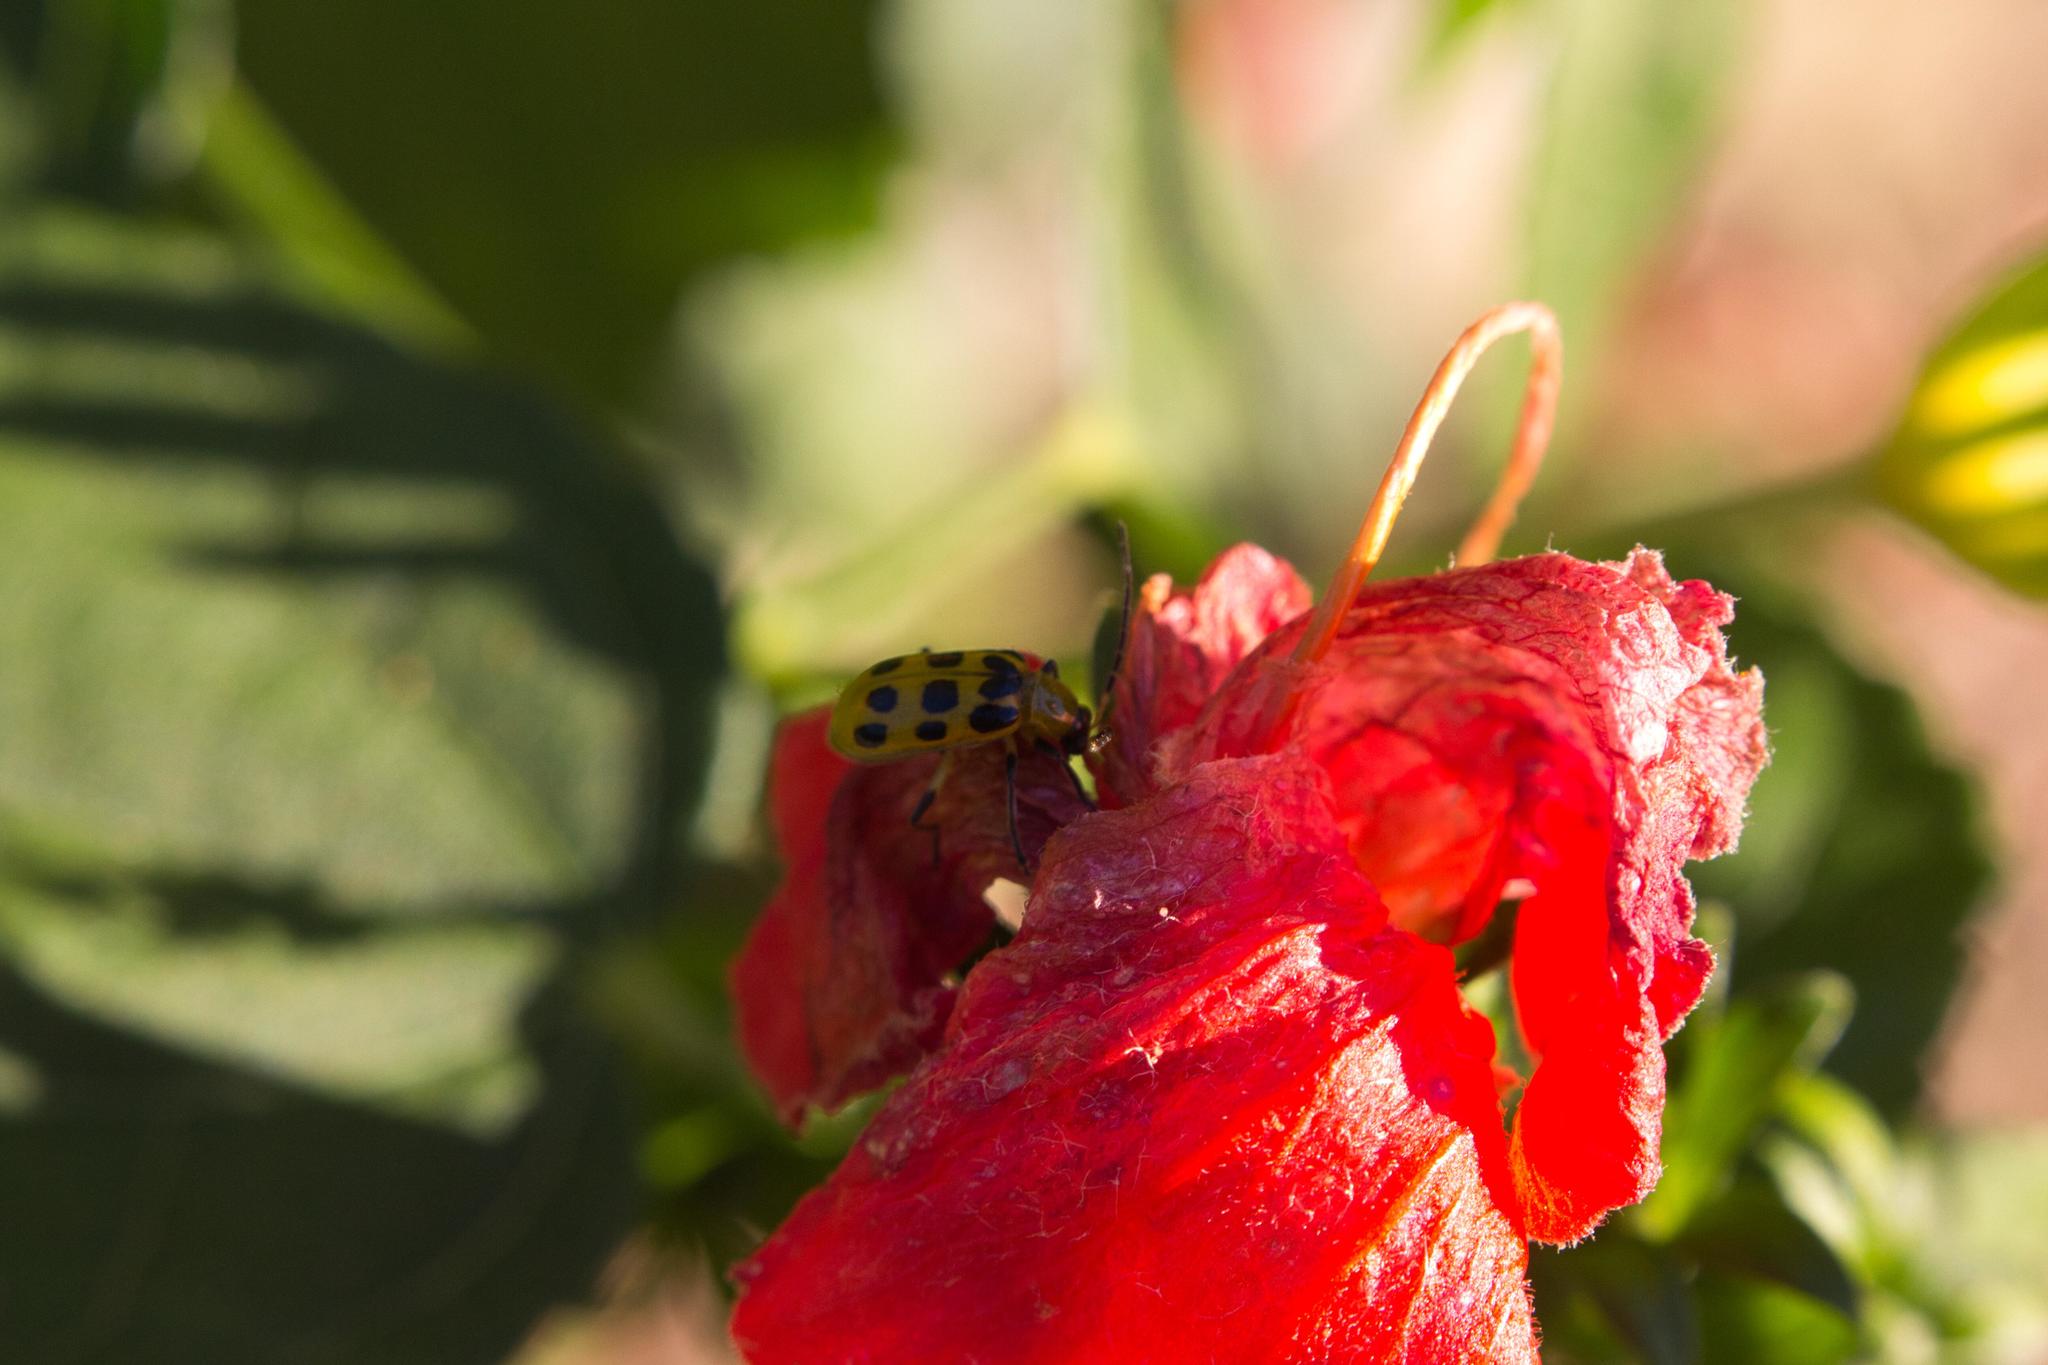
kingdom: Animalia
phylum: Arthropoda
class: Insecta
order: Coleoptera
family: Chrysomelidae
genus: Diabrotica
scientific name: Diabrotica undecimpunctata
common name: Spotted cucumber beetle
